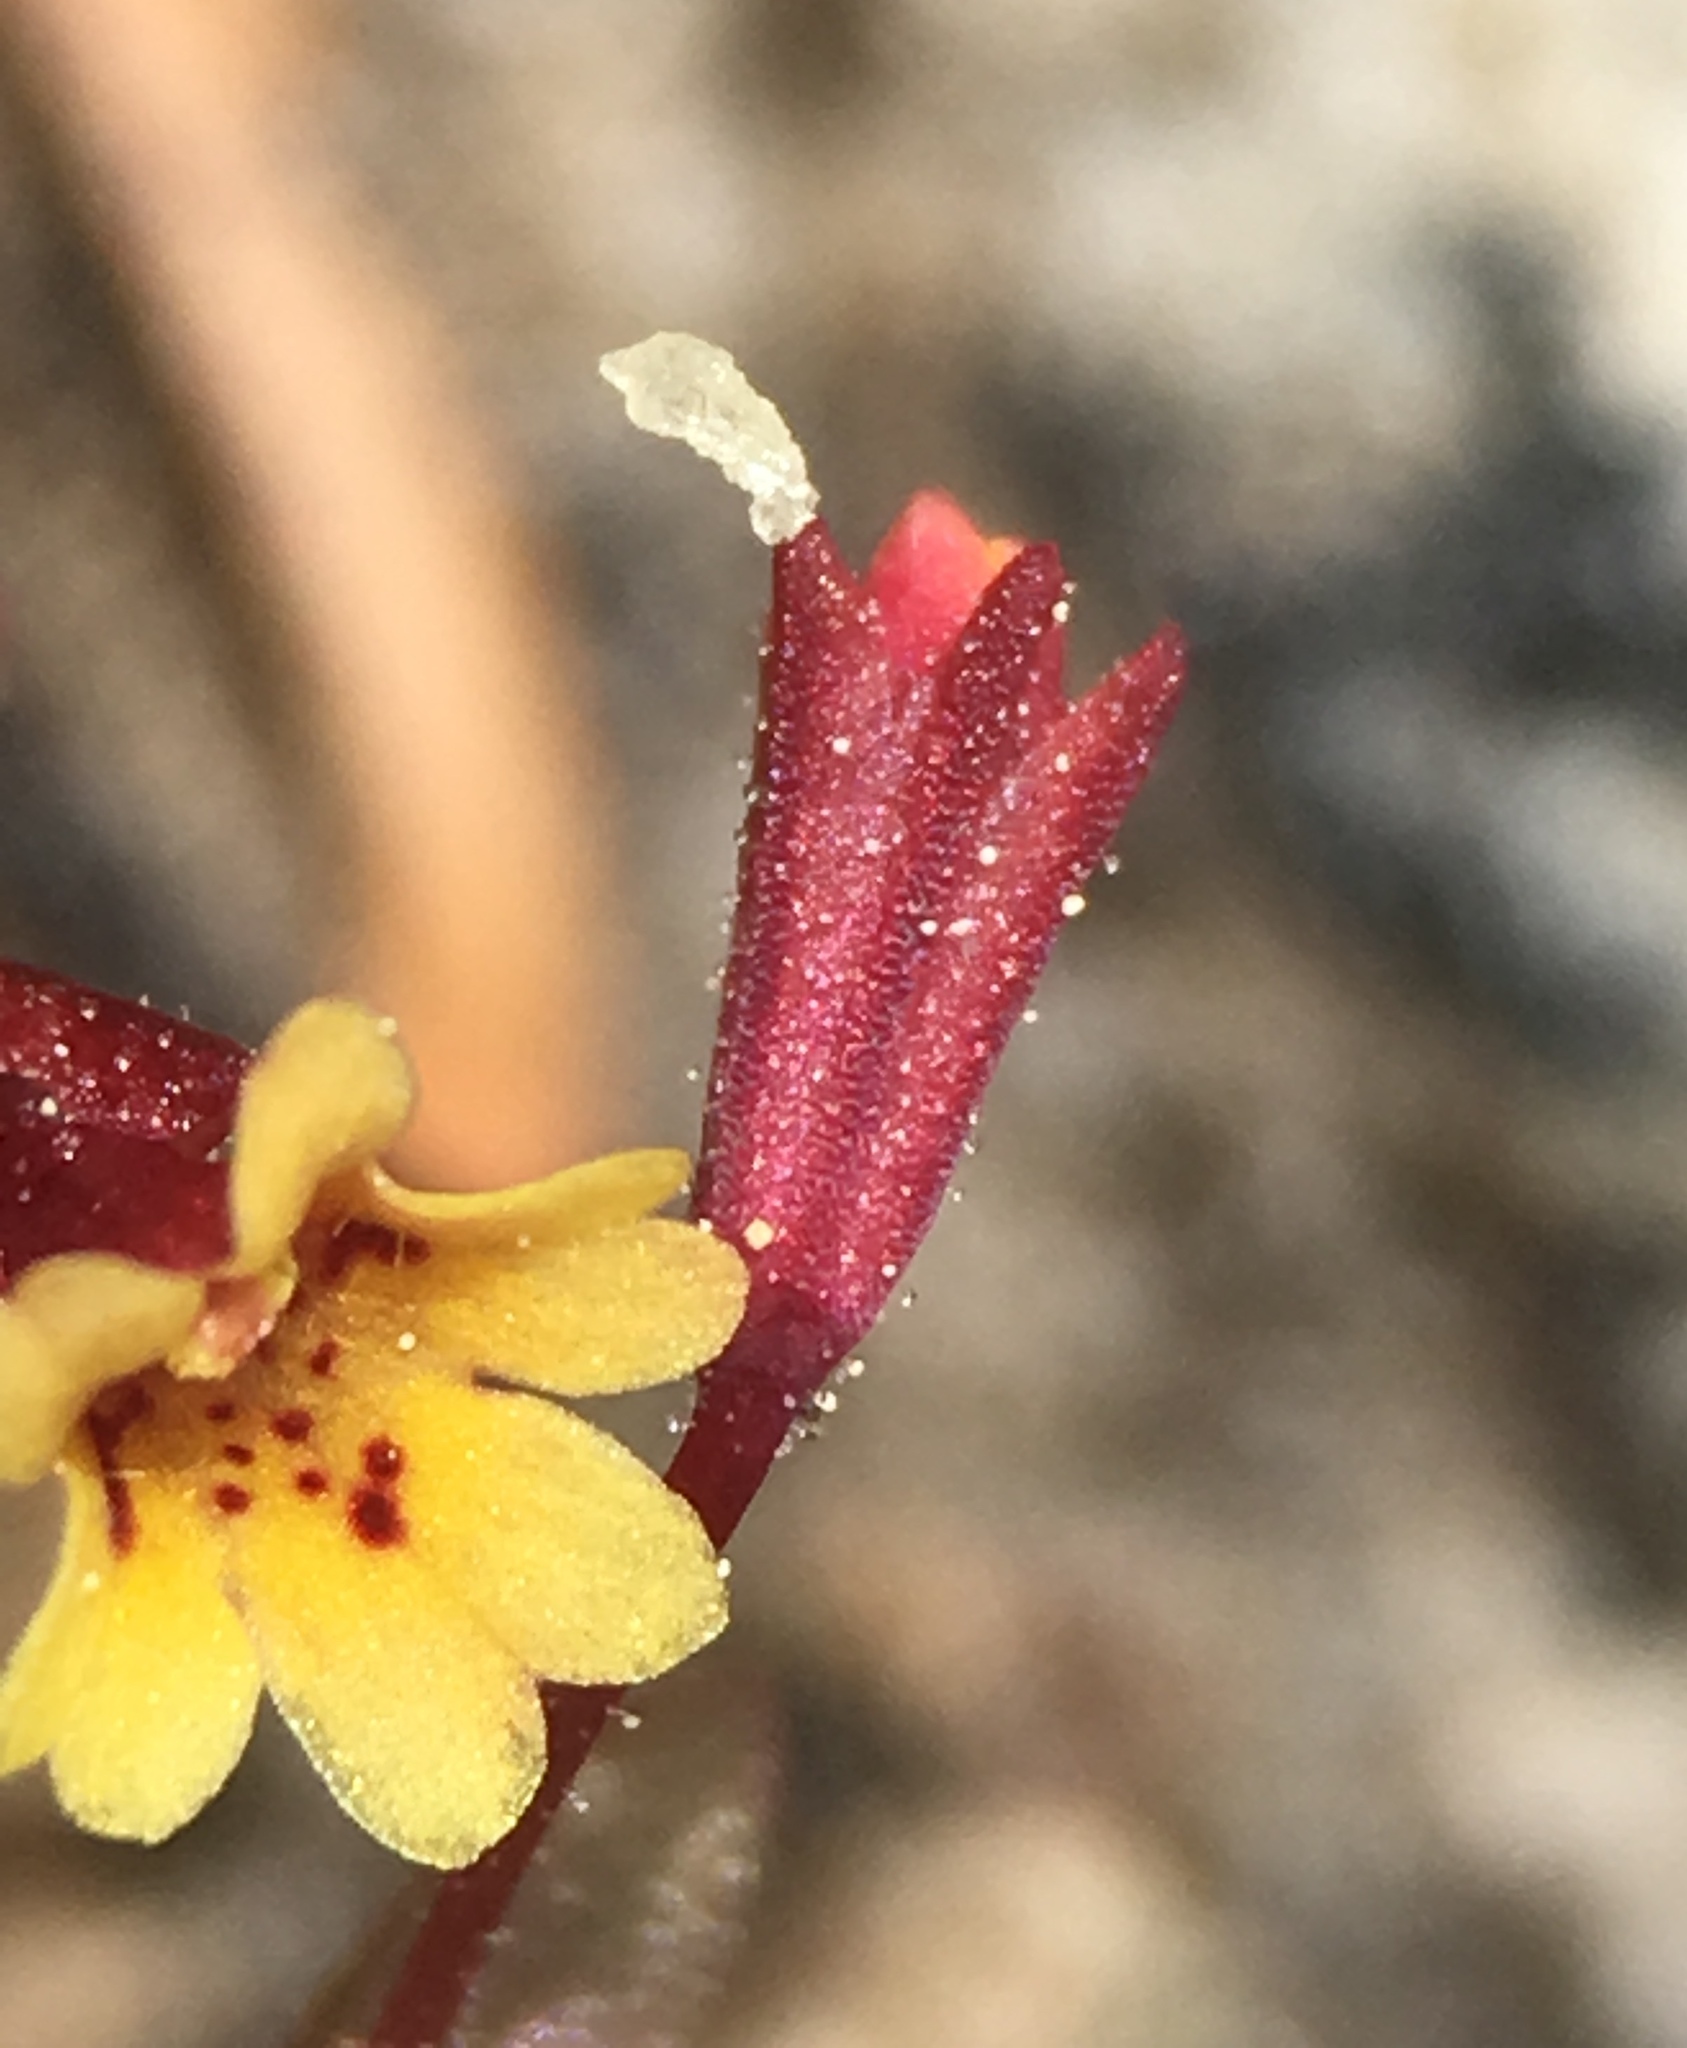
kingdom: Plantae
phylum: Tracheophyta
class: Magnoliopsida
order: Lamiales
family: Phrymaceae
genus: Erythranthe
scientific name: Erythranthe suksdorfii
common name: Suksdorf's monkeyflower
